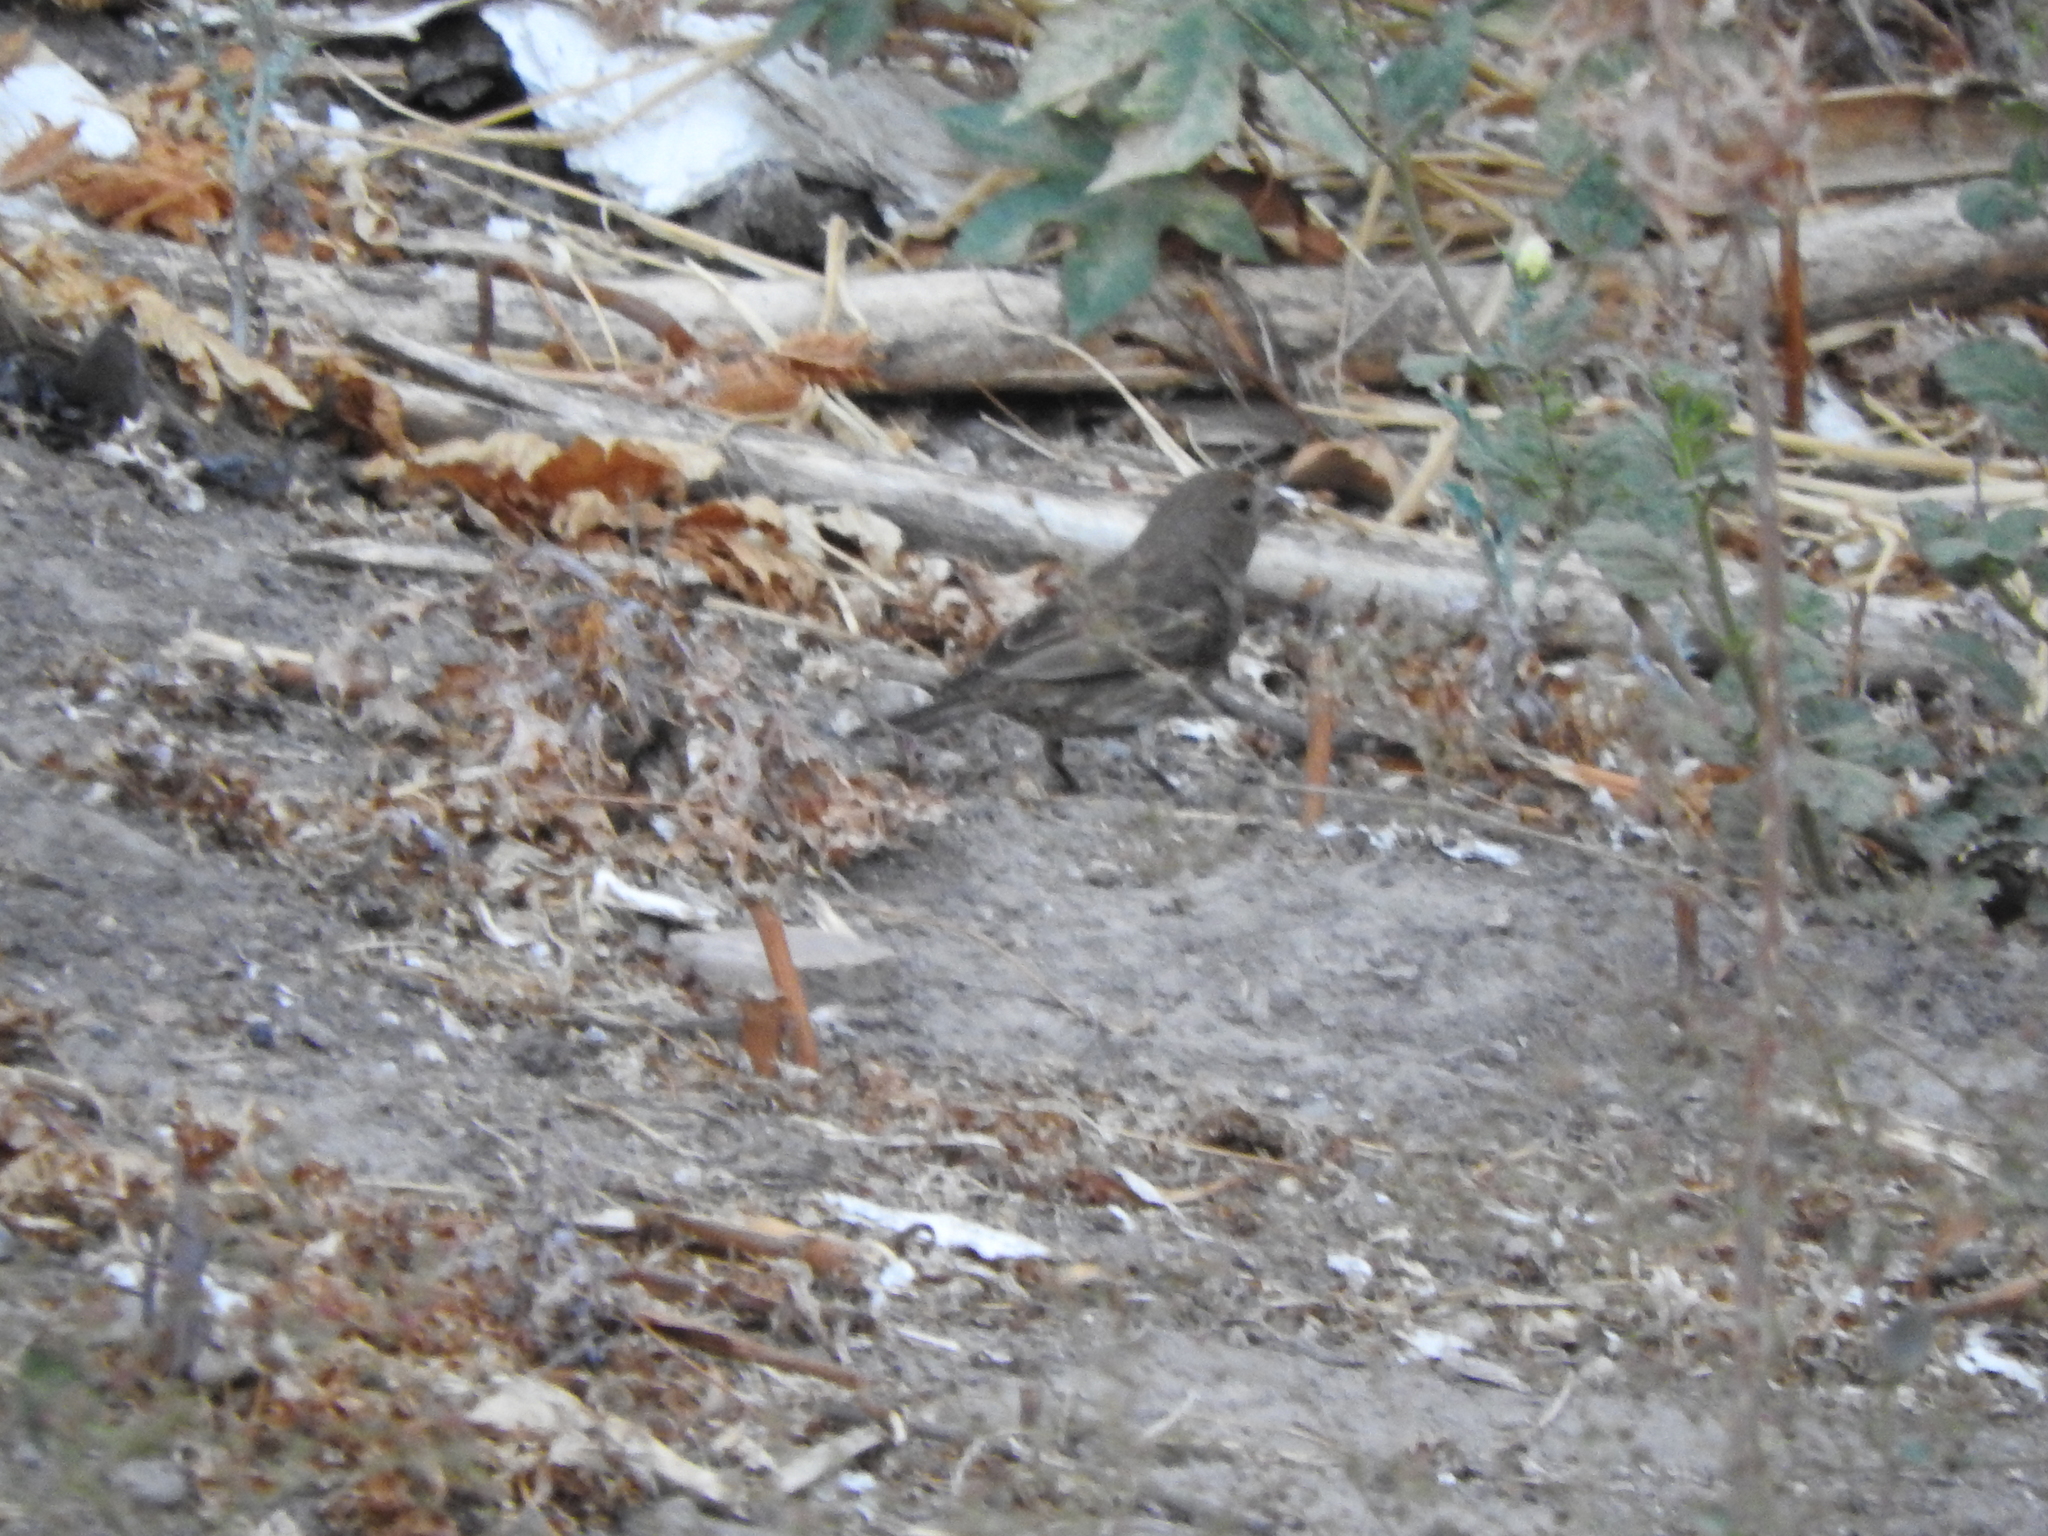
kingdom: Animalia
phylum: Chordata
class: Aves
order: Passeriformes
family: Fringillidae
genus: Haemorhous
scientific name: Haemorhous mexicanus
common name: House finch
